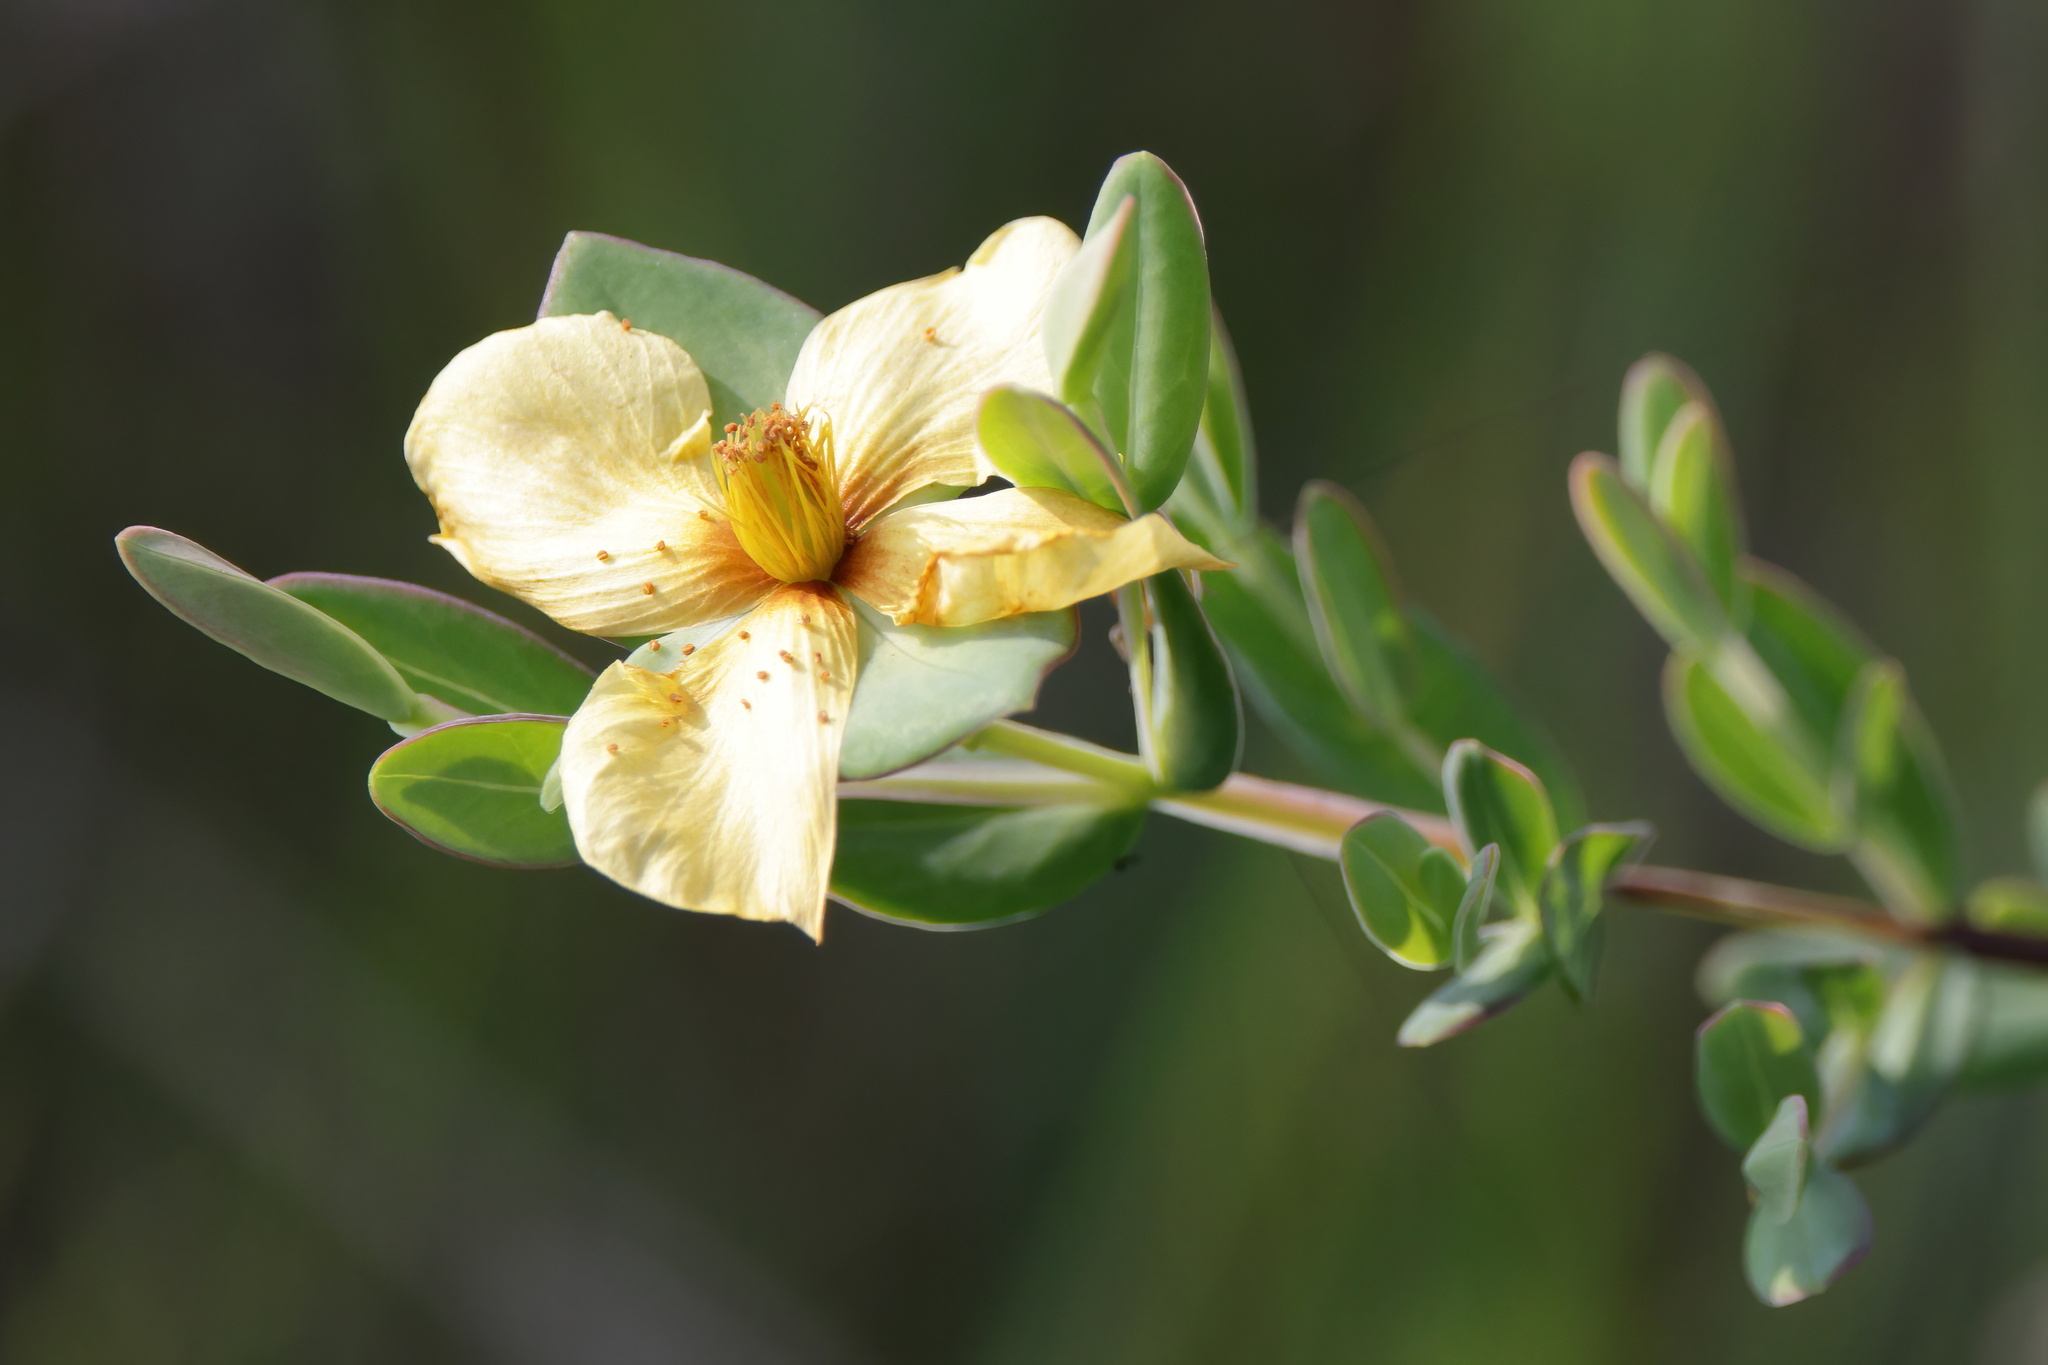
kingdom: Plantae
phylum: Tracheophyta
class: Magnoliopsida
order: Malpighiales
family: Hypericaceae
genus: Hypericum
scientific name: Hypericum crux-andreae
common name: St.-peter's-wort
